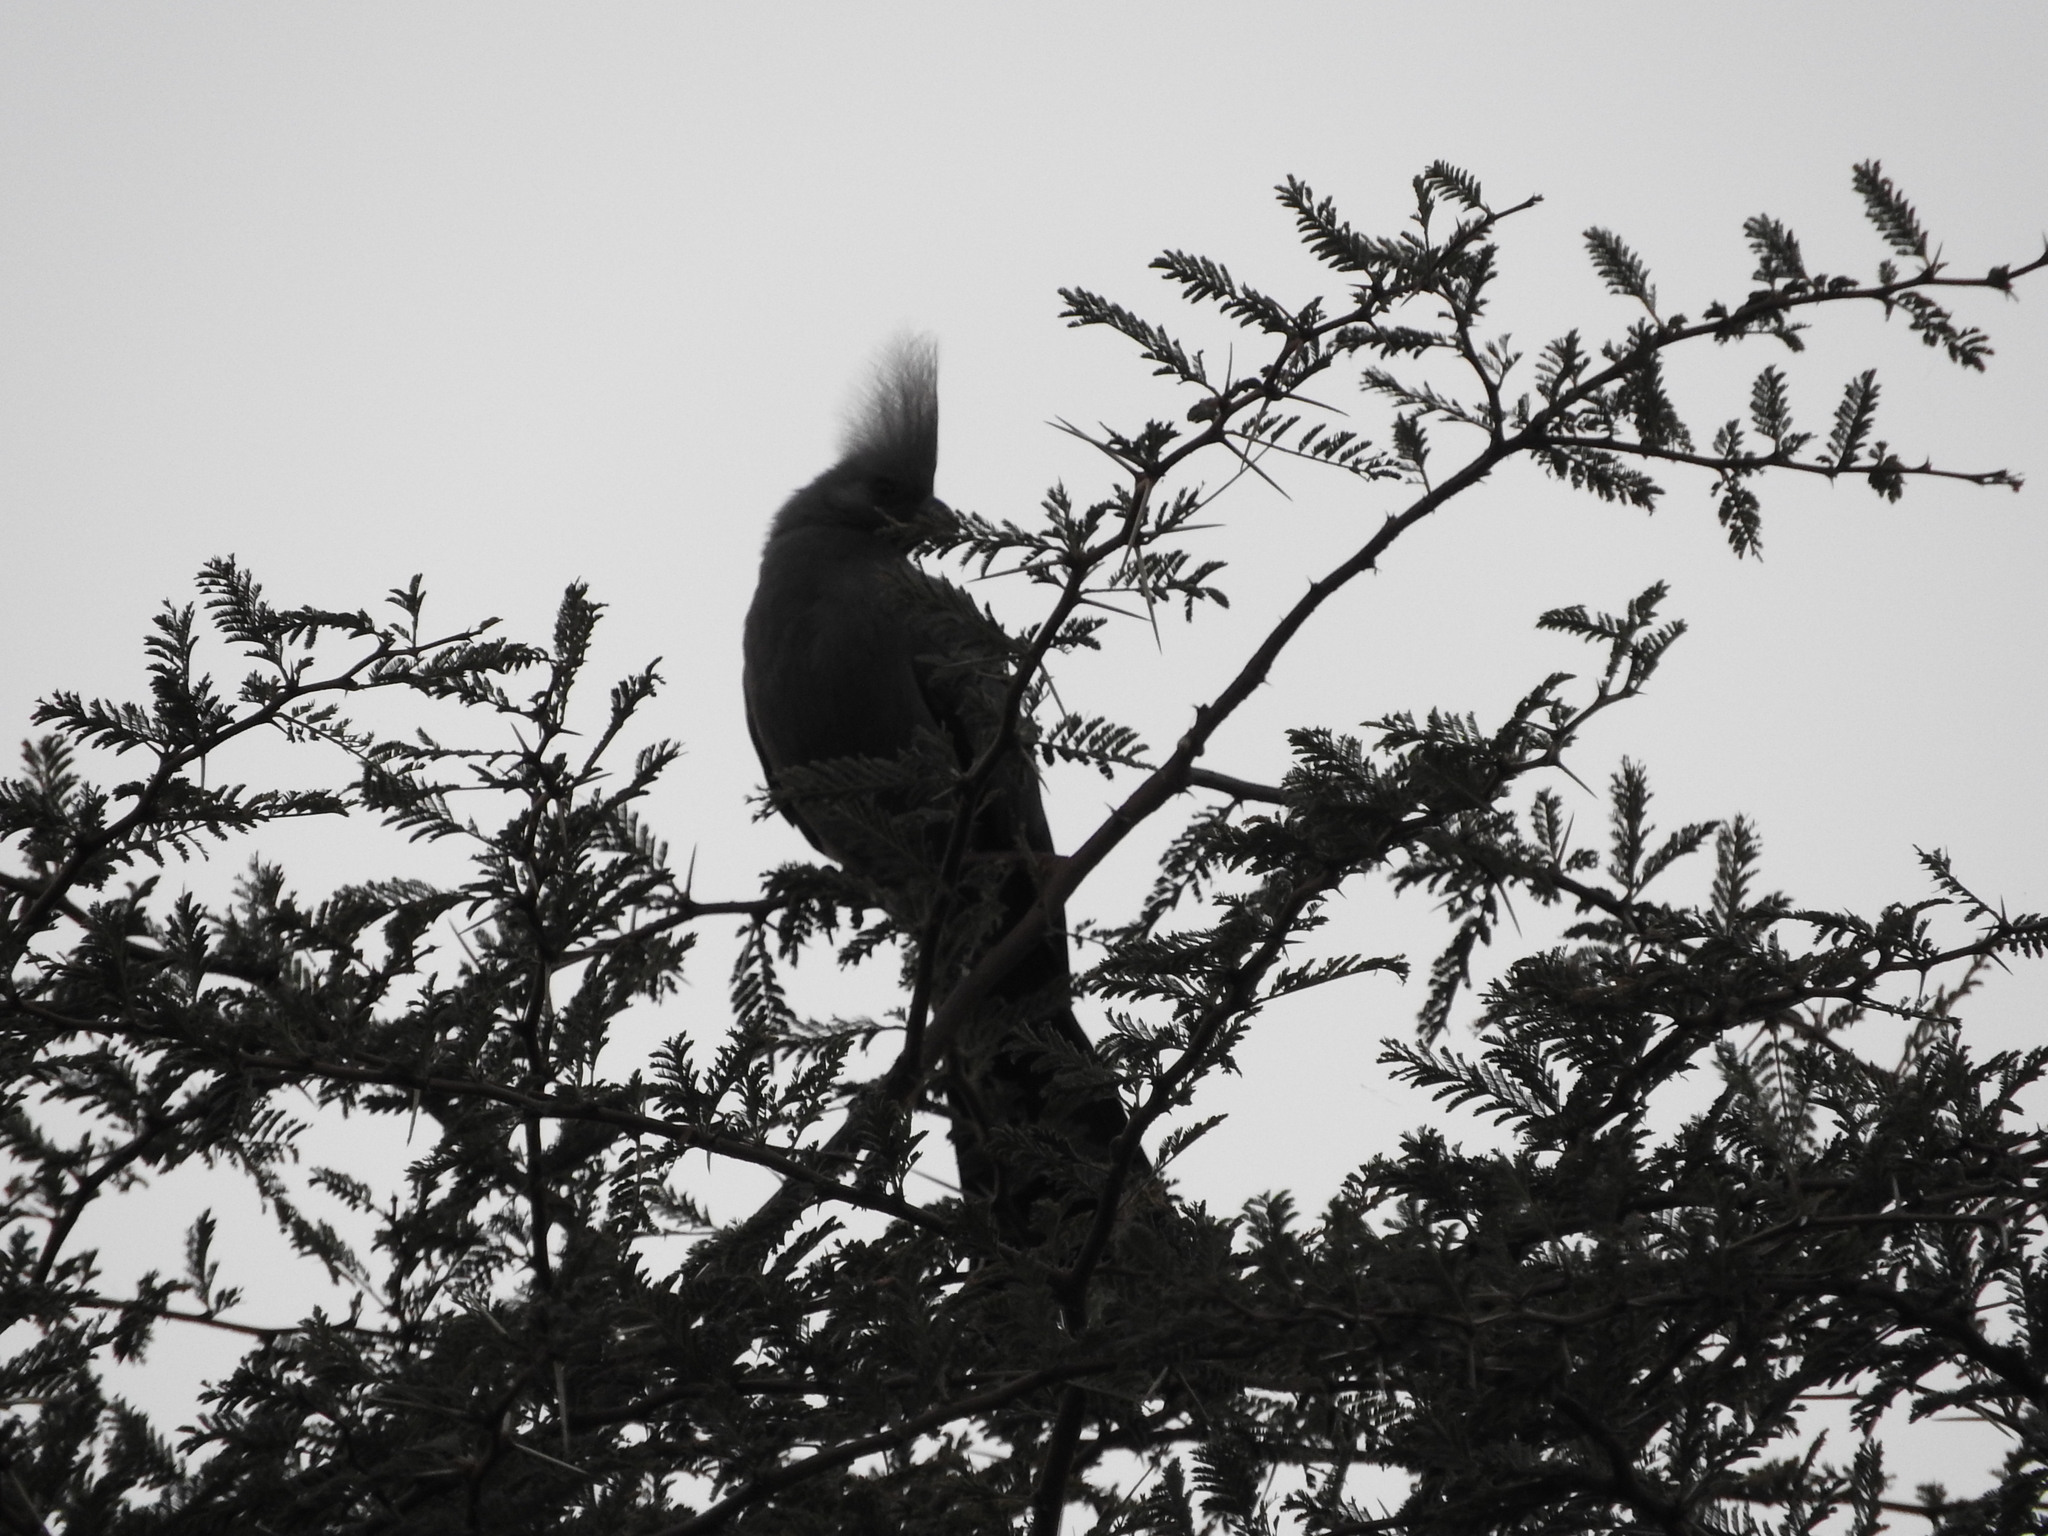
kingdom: Animalia
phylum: Chordata
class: Aves
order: Musophagiformes
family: Musophagidae
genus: Corythaixoides
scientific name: Corythaixoides concolor
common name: Grey go-away-bird
